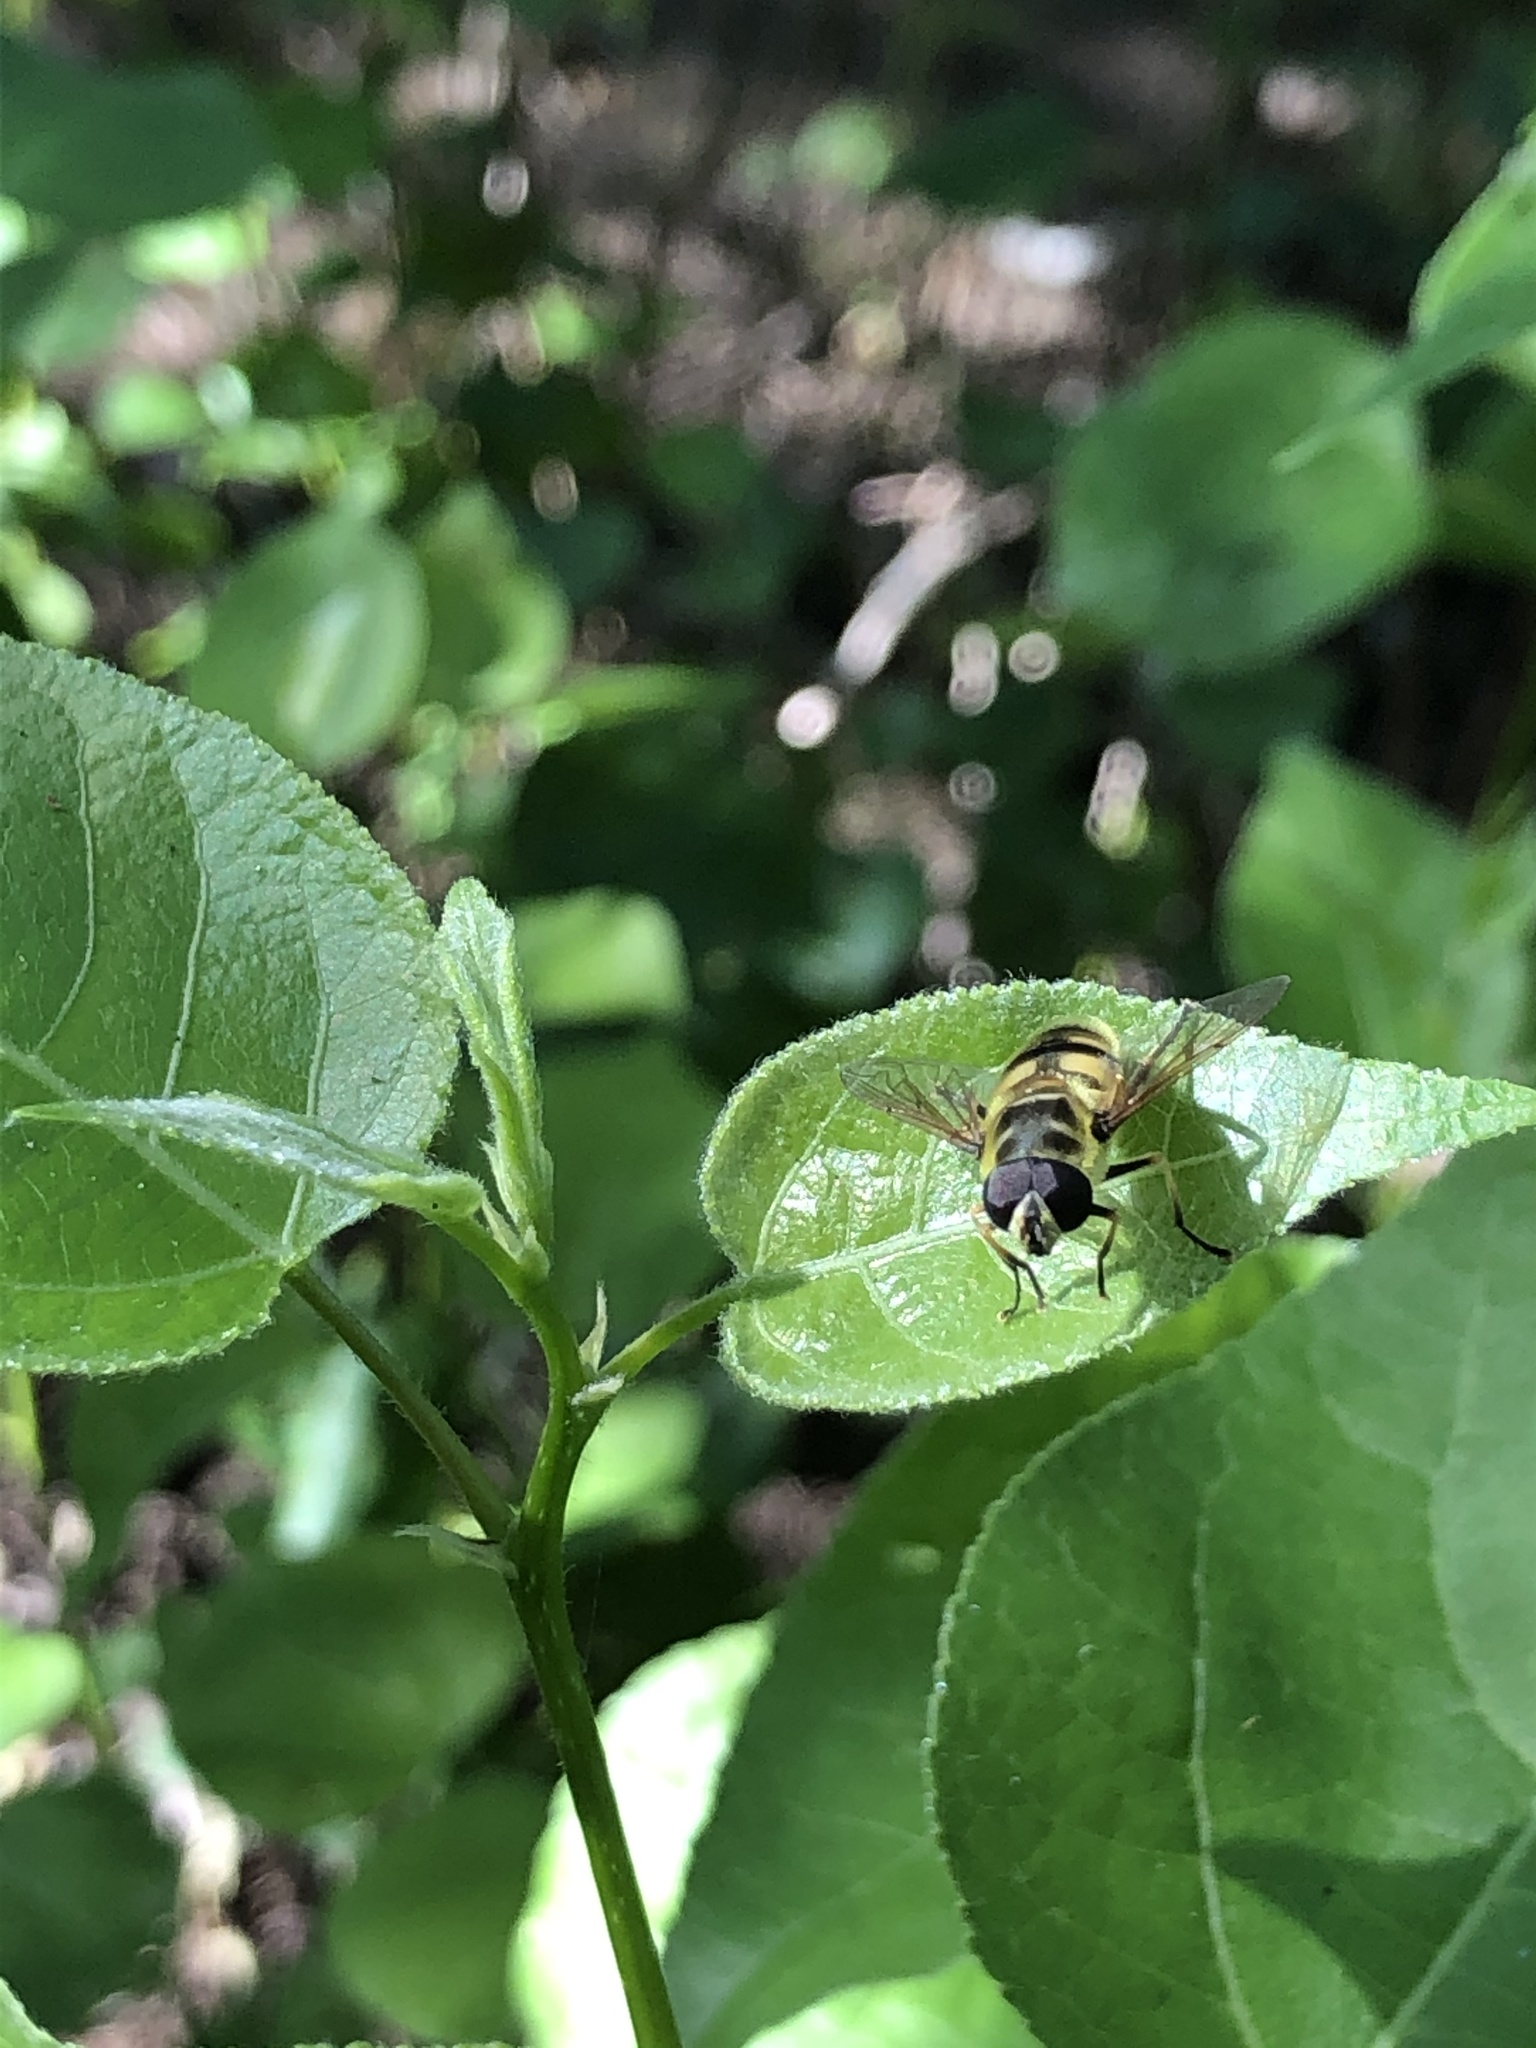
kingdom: Animalia
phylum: Arthropoda
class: Insecta
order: Diptera
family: Syrphidae
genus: Myathropa
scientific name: Myathropa florea
